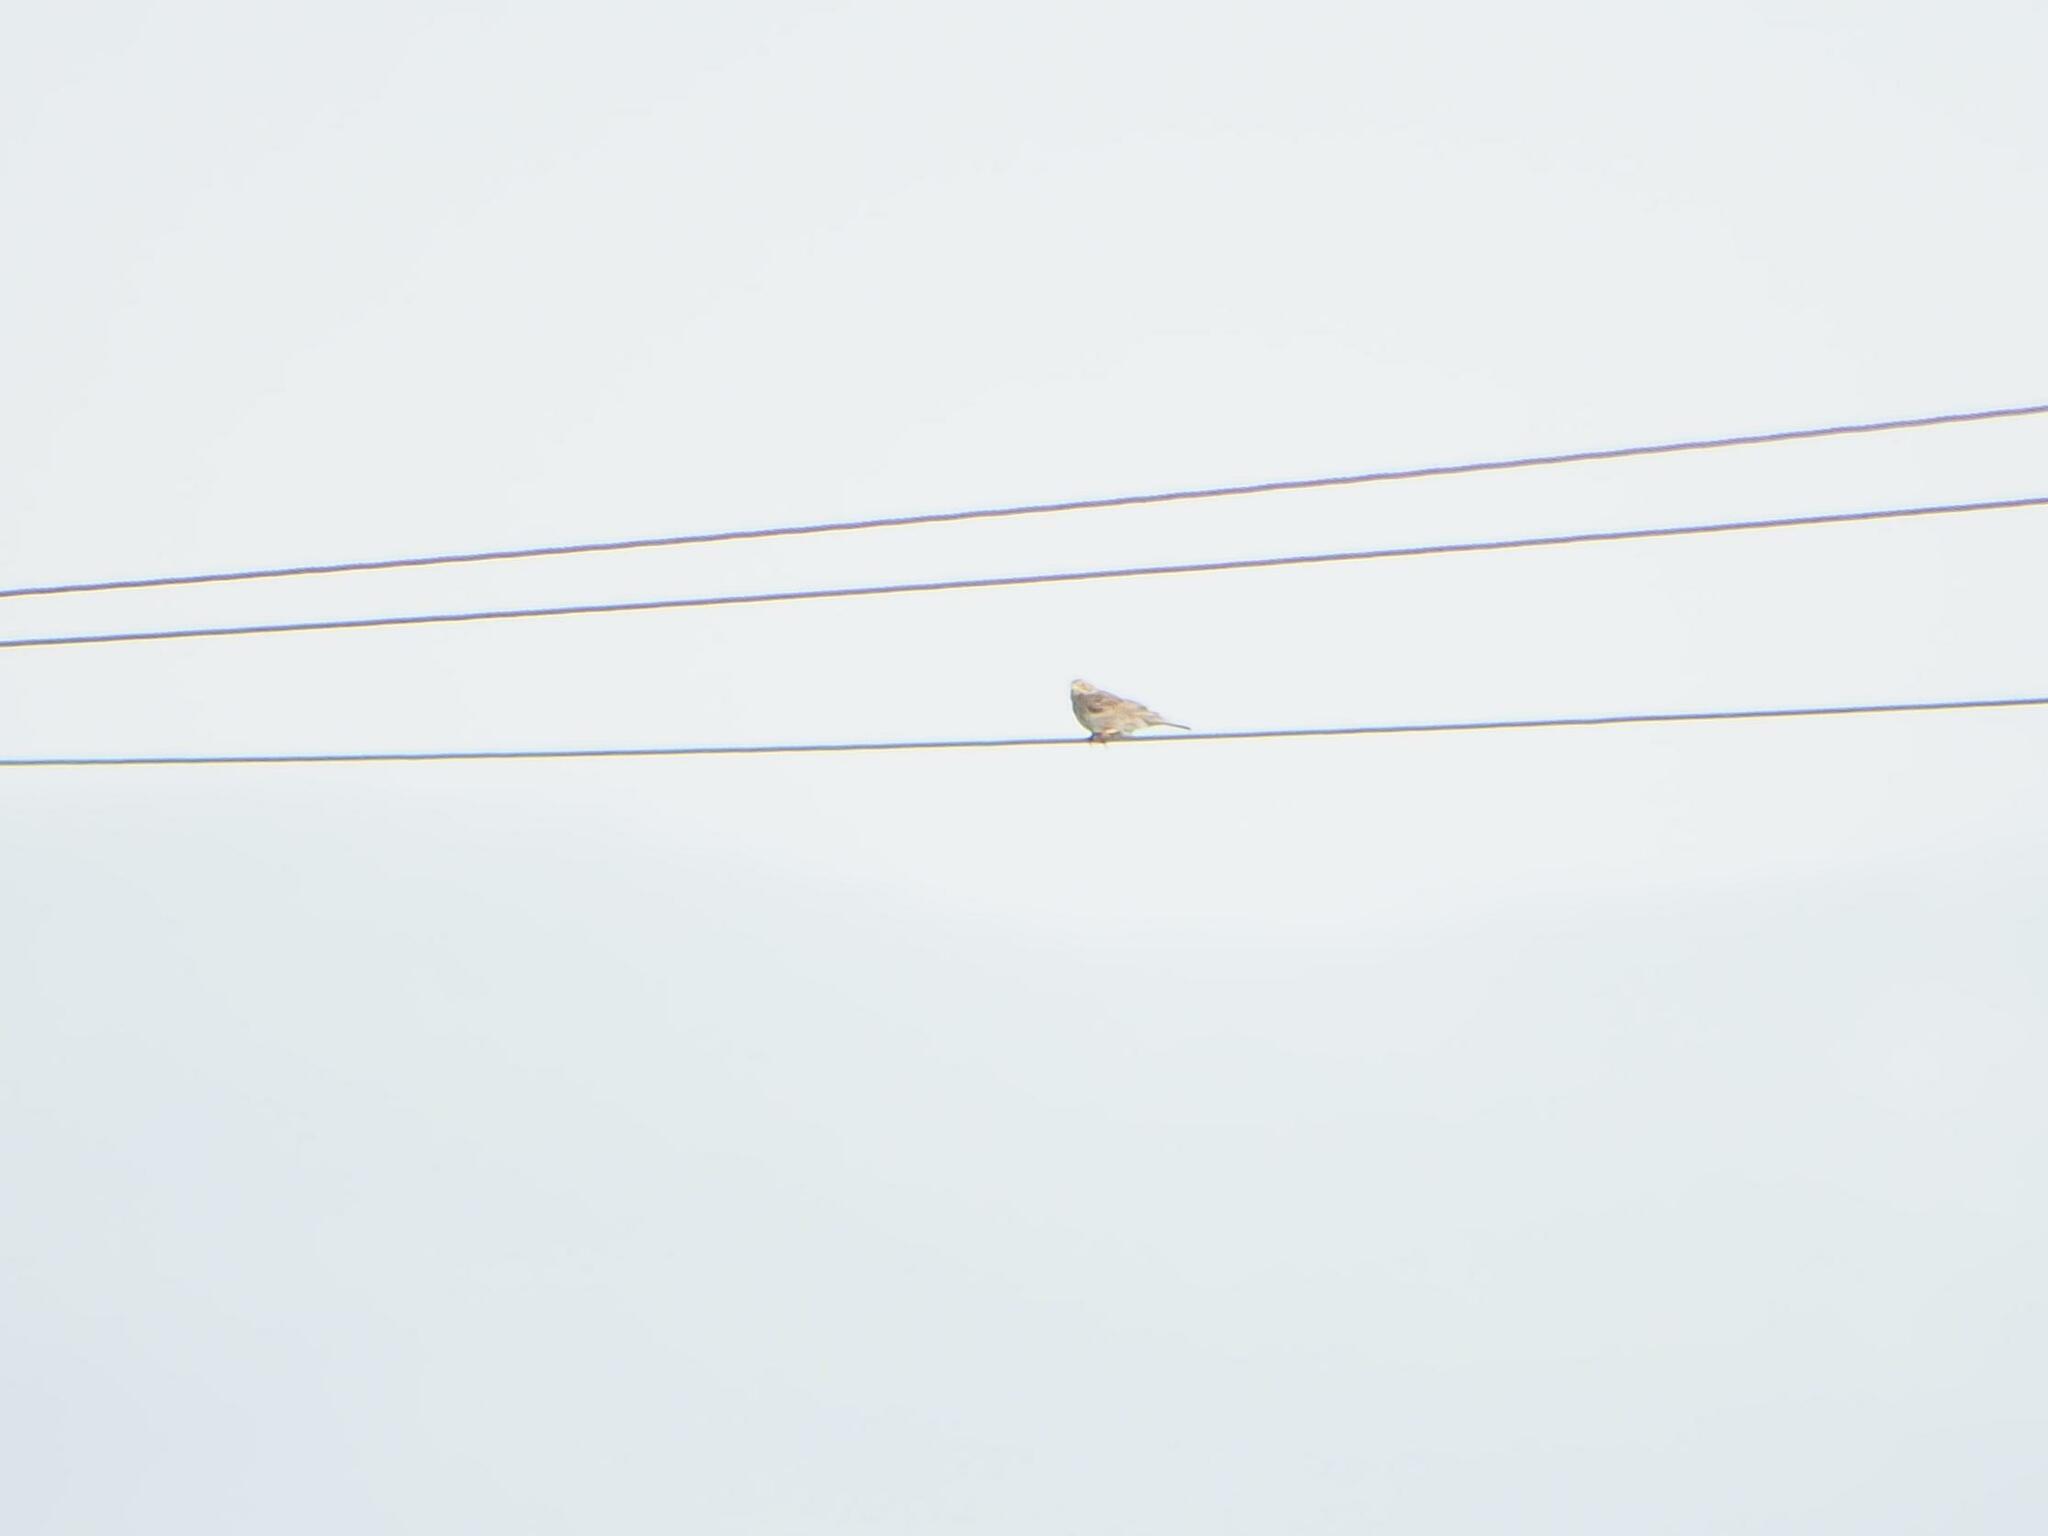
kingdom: Animalia
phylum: Chordata
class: Aves
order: Passeriformes
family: Emberizidae
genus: Emberiza
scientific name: Emberiza calandra
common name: Corn bunting
